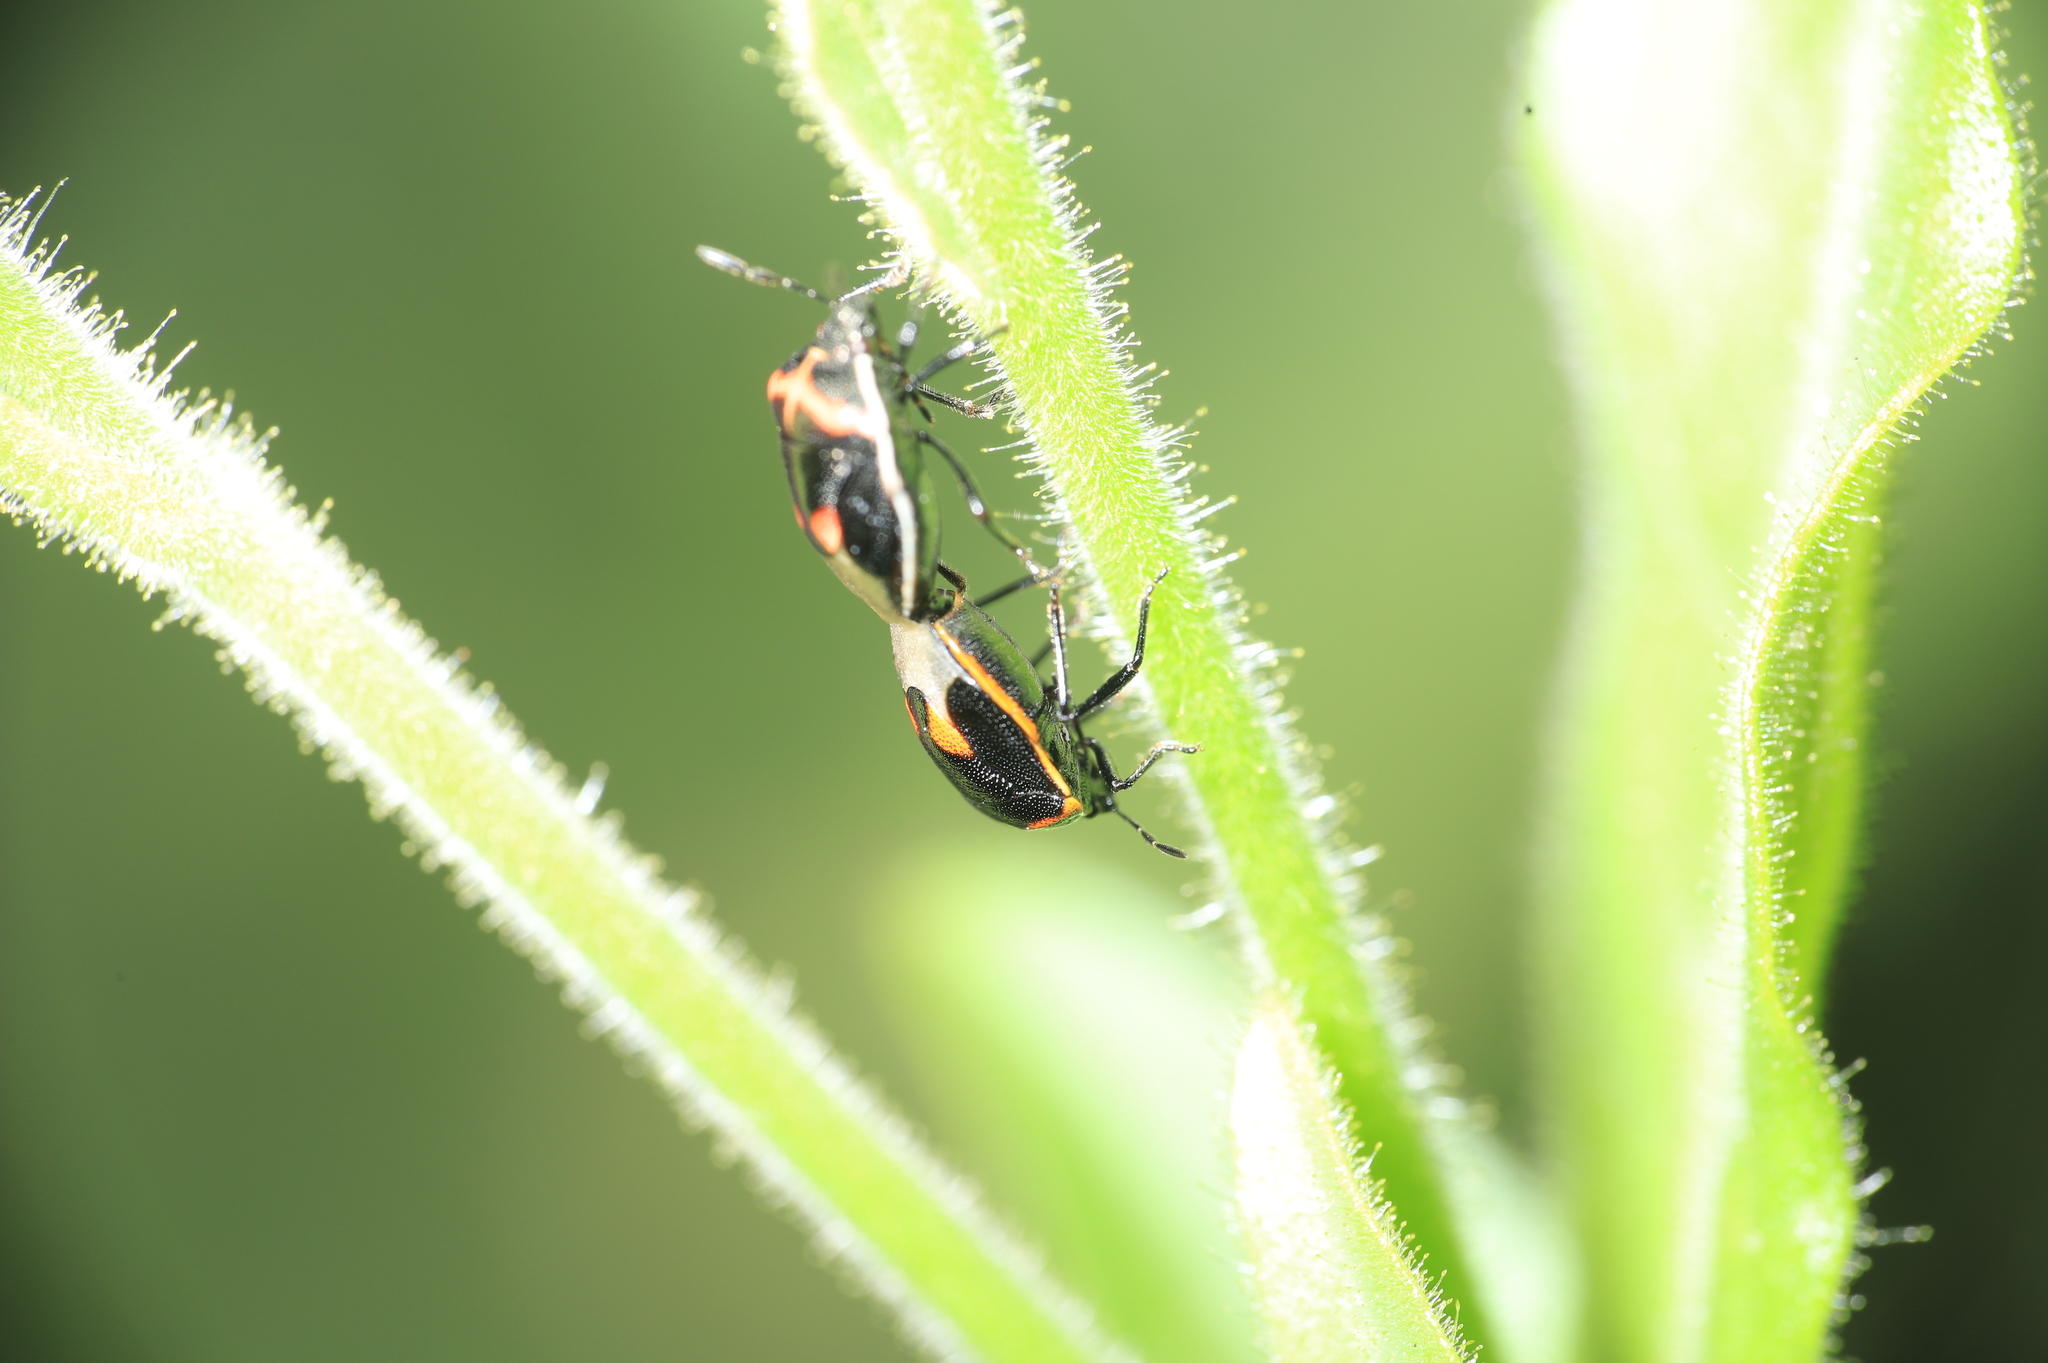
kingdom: Animalia
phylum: Arthropoda
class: Insecta
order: Hemiptera
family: Pentatomidae
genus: Cosmopepla
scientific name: Cosmopepla lintneriana
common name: Twice-stabbed stink bug
